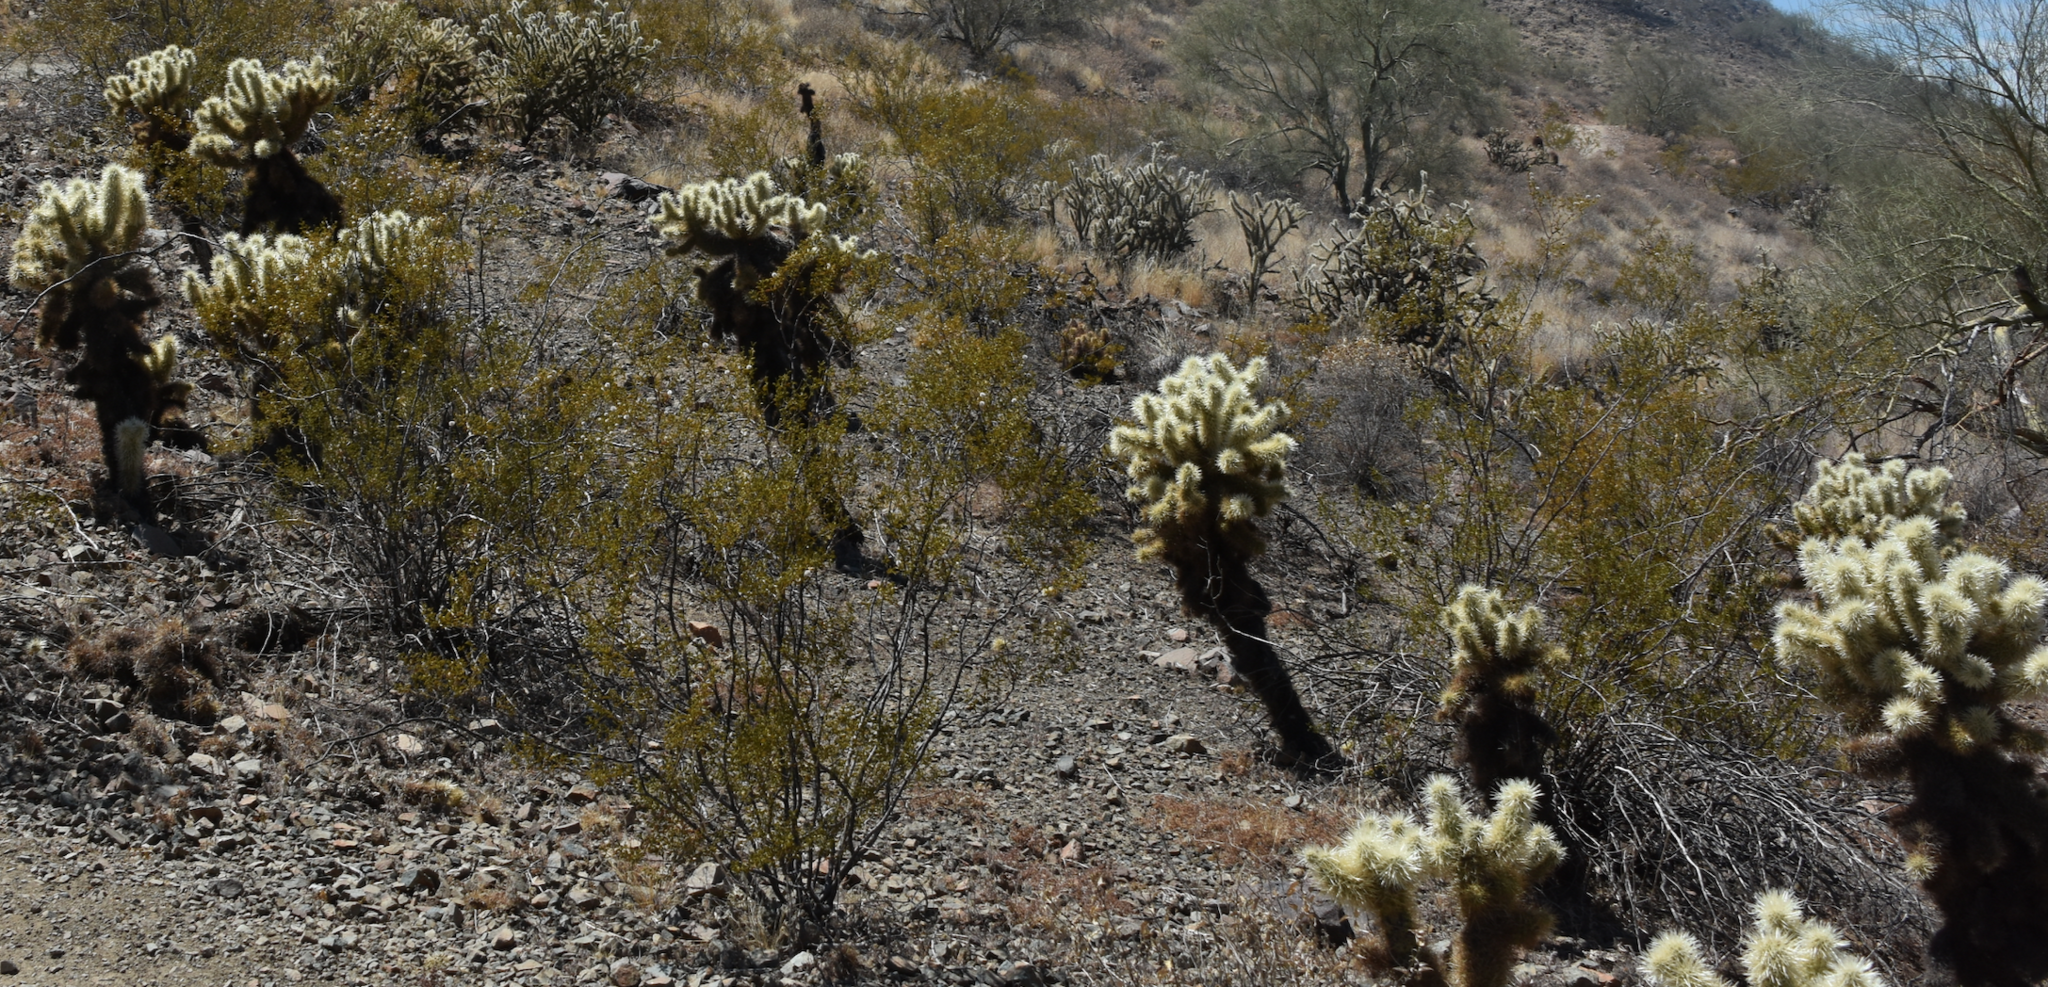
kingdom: Plantae
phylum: Tracheophyta
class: Magnoliopsida
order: Caryophyllales
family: Cactaceae
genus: Cylindropuntia
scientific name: Cylindropuntia fosbergii
